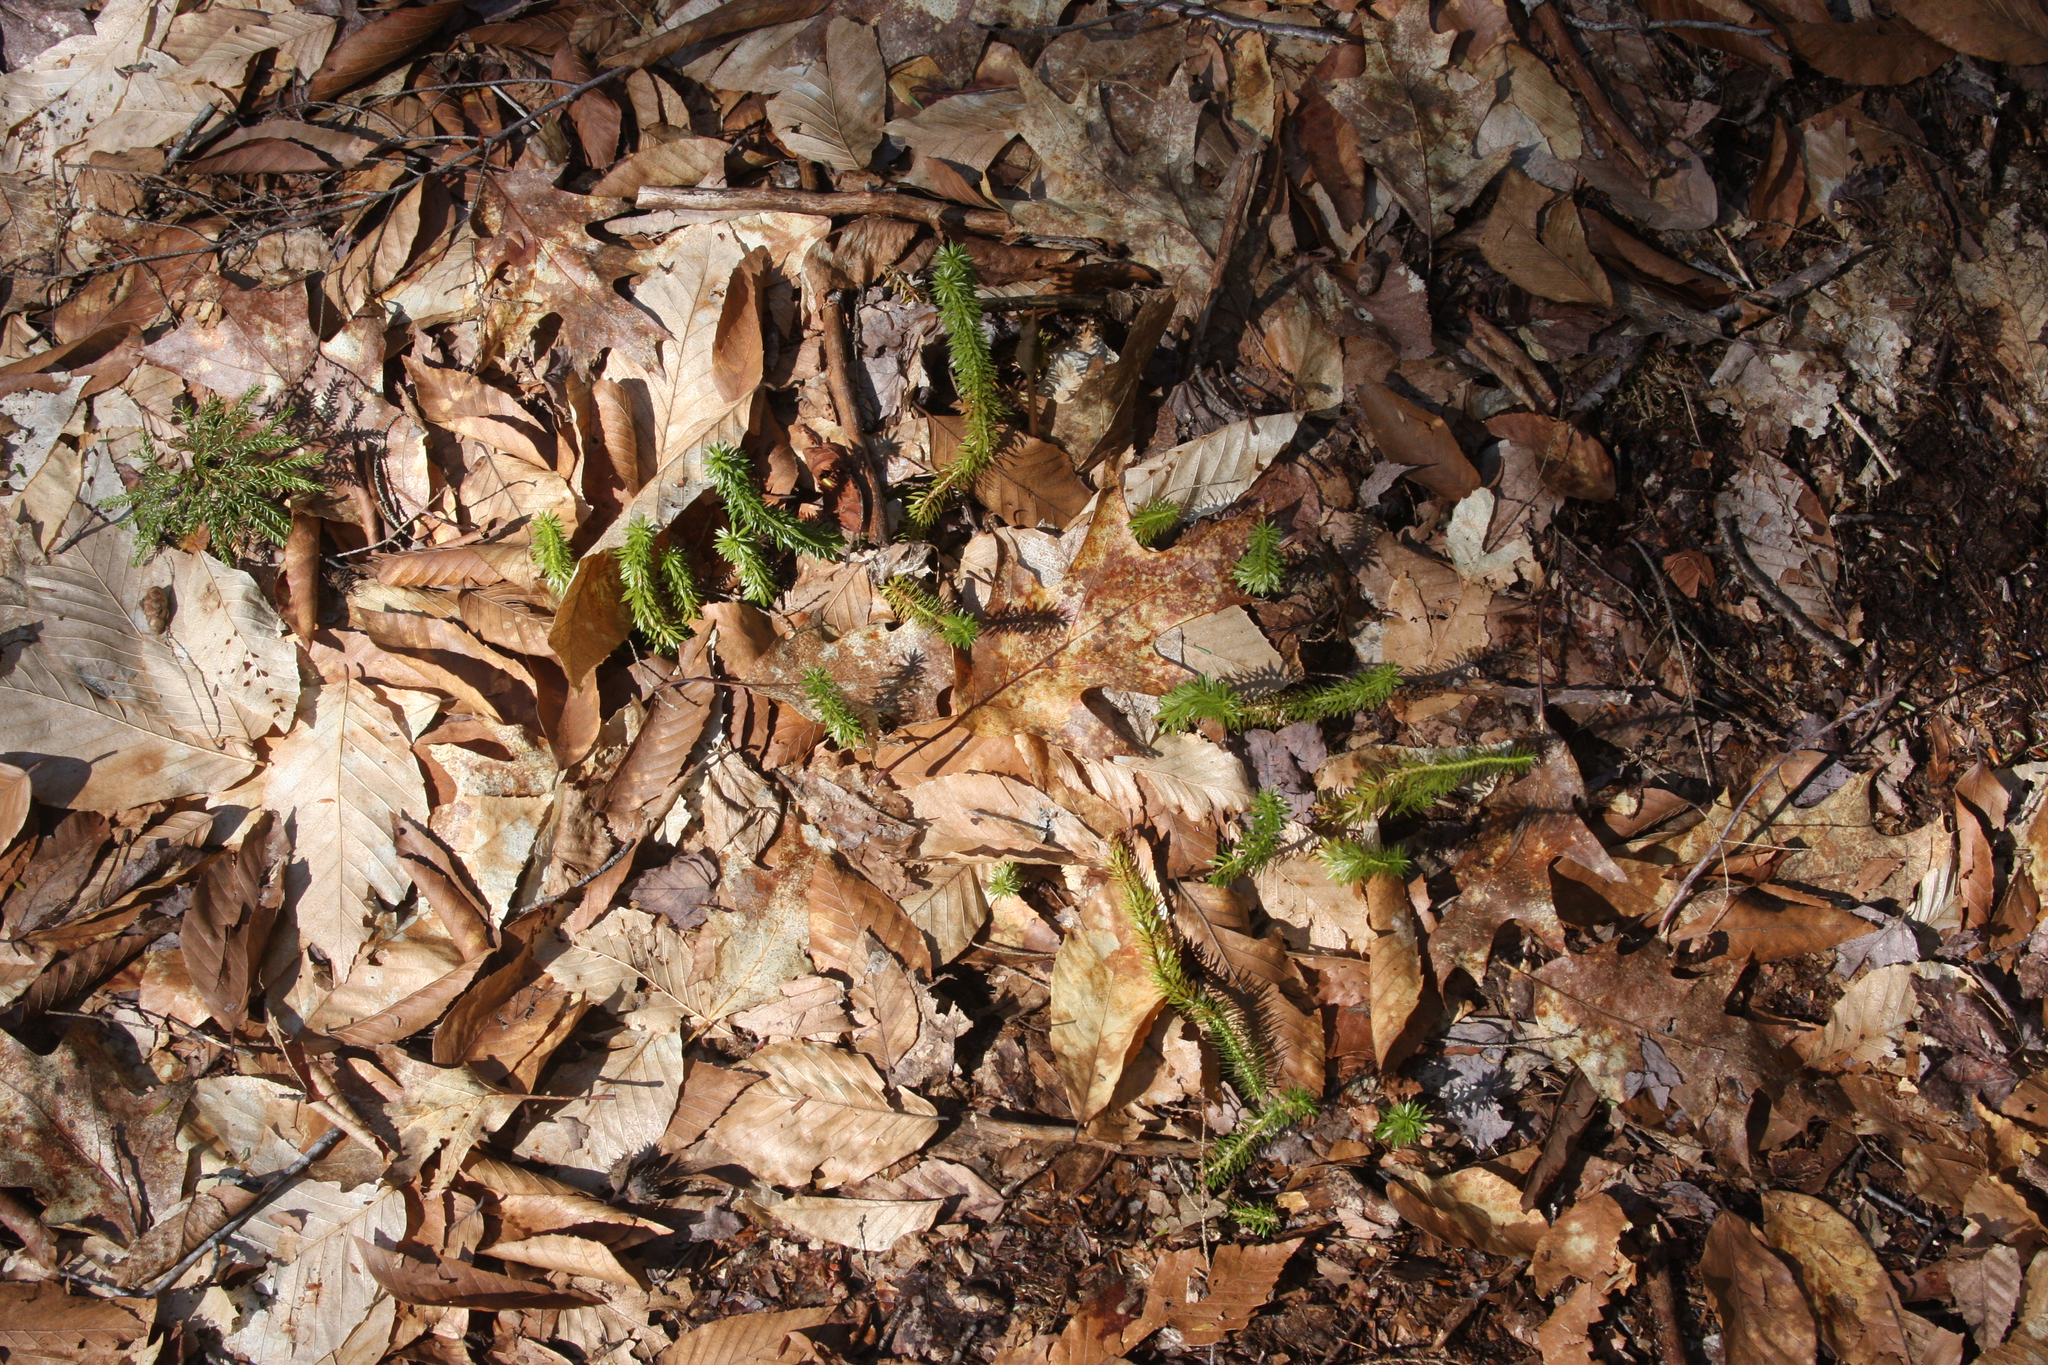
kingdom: Plantae
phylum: Tracheophyta
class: Lycopodiopsida
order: Lycopodiales
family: Lycopodiaceae
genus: Spinulum
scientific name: Spinulum annotinum
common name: Interrupted club-moss
